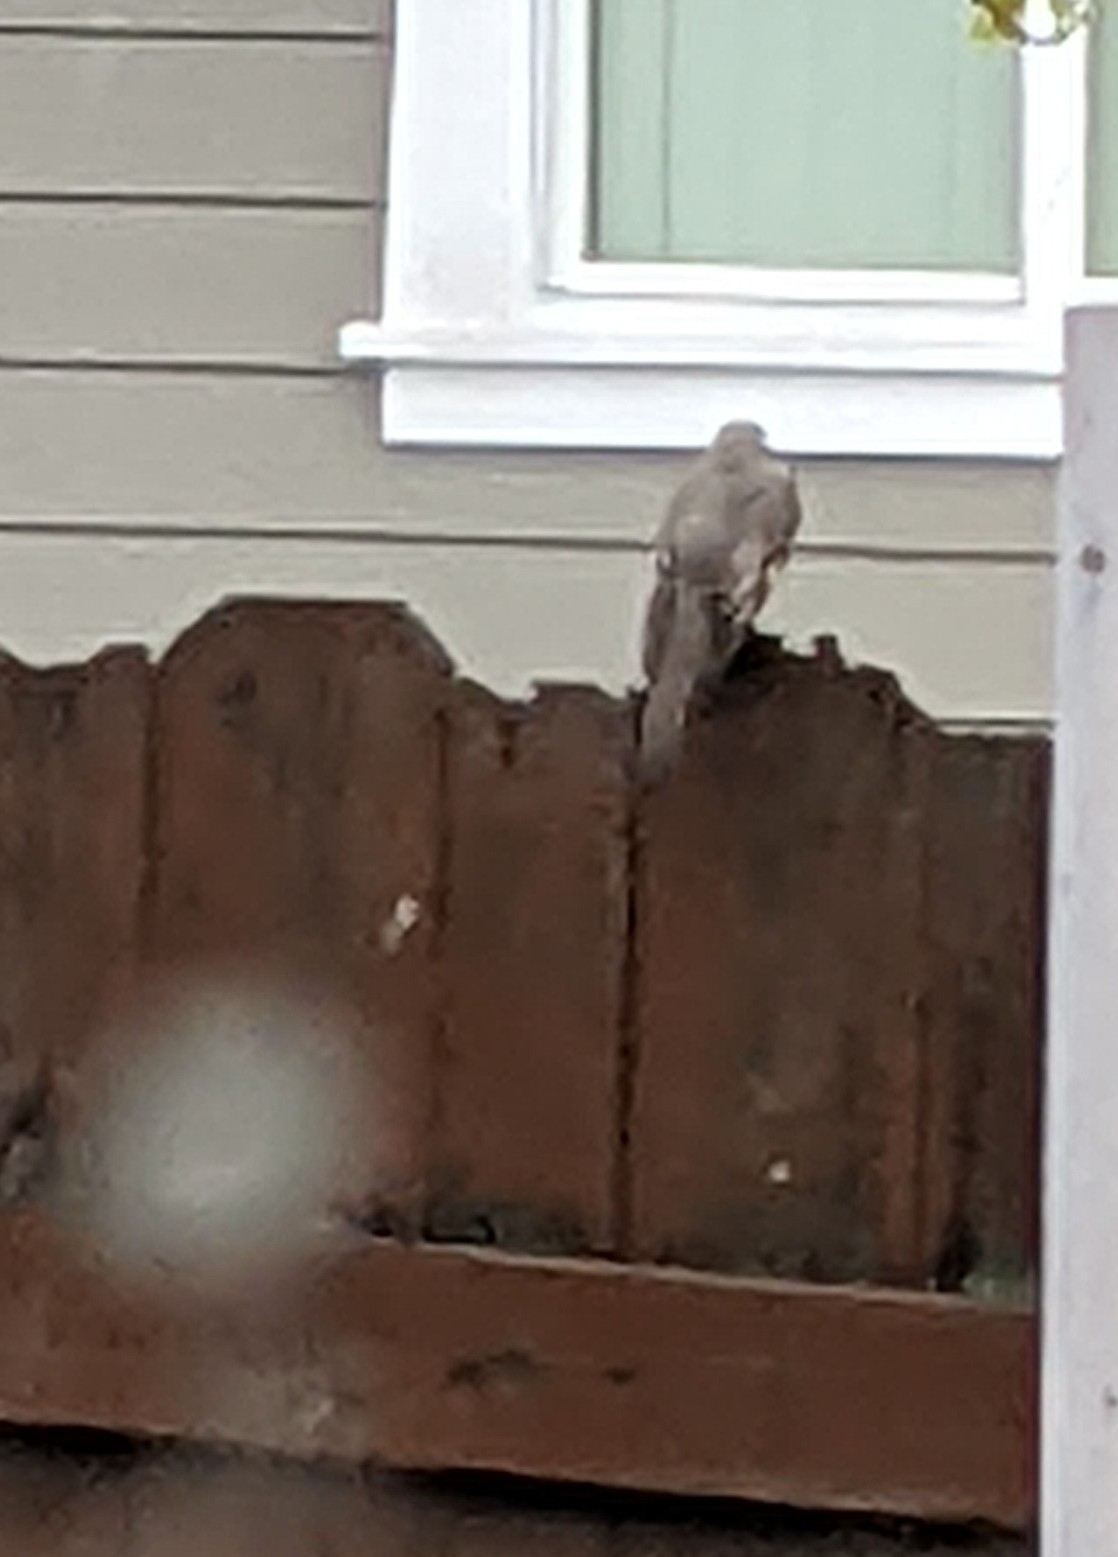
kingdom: Animalia
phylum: Chordata
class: Aves
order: Passeriformes
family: Turdidae
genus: Myadestes
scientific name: Myadestes townsendi
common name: Townsend's solitaire
